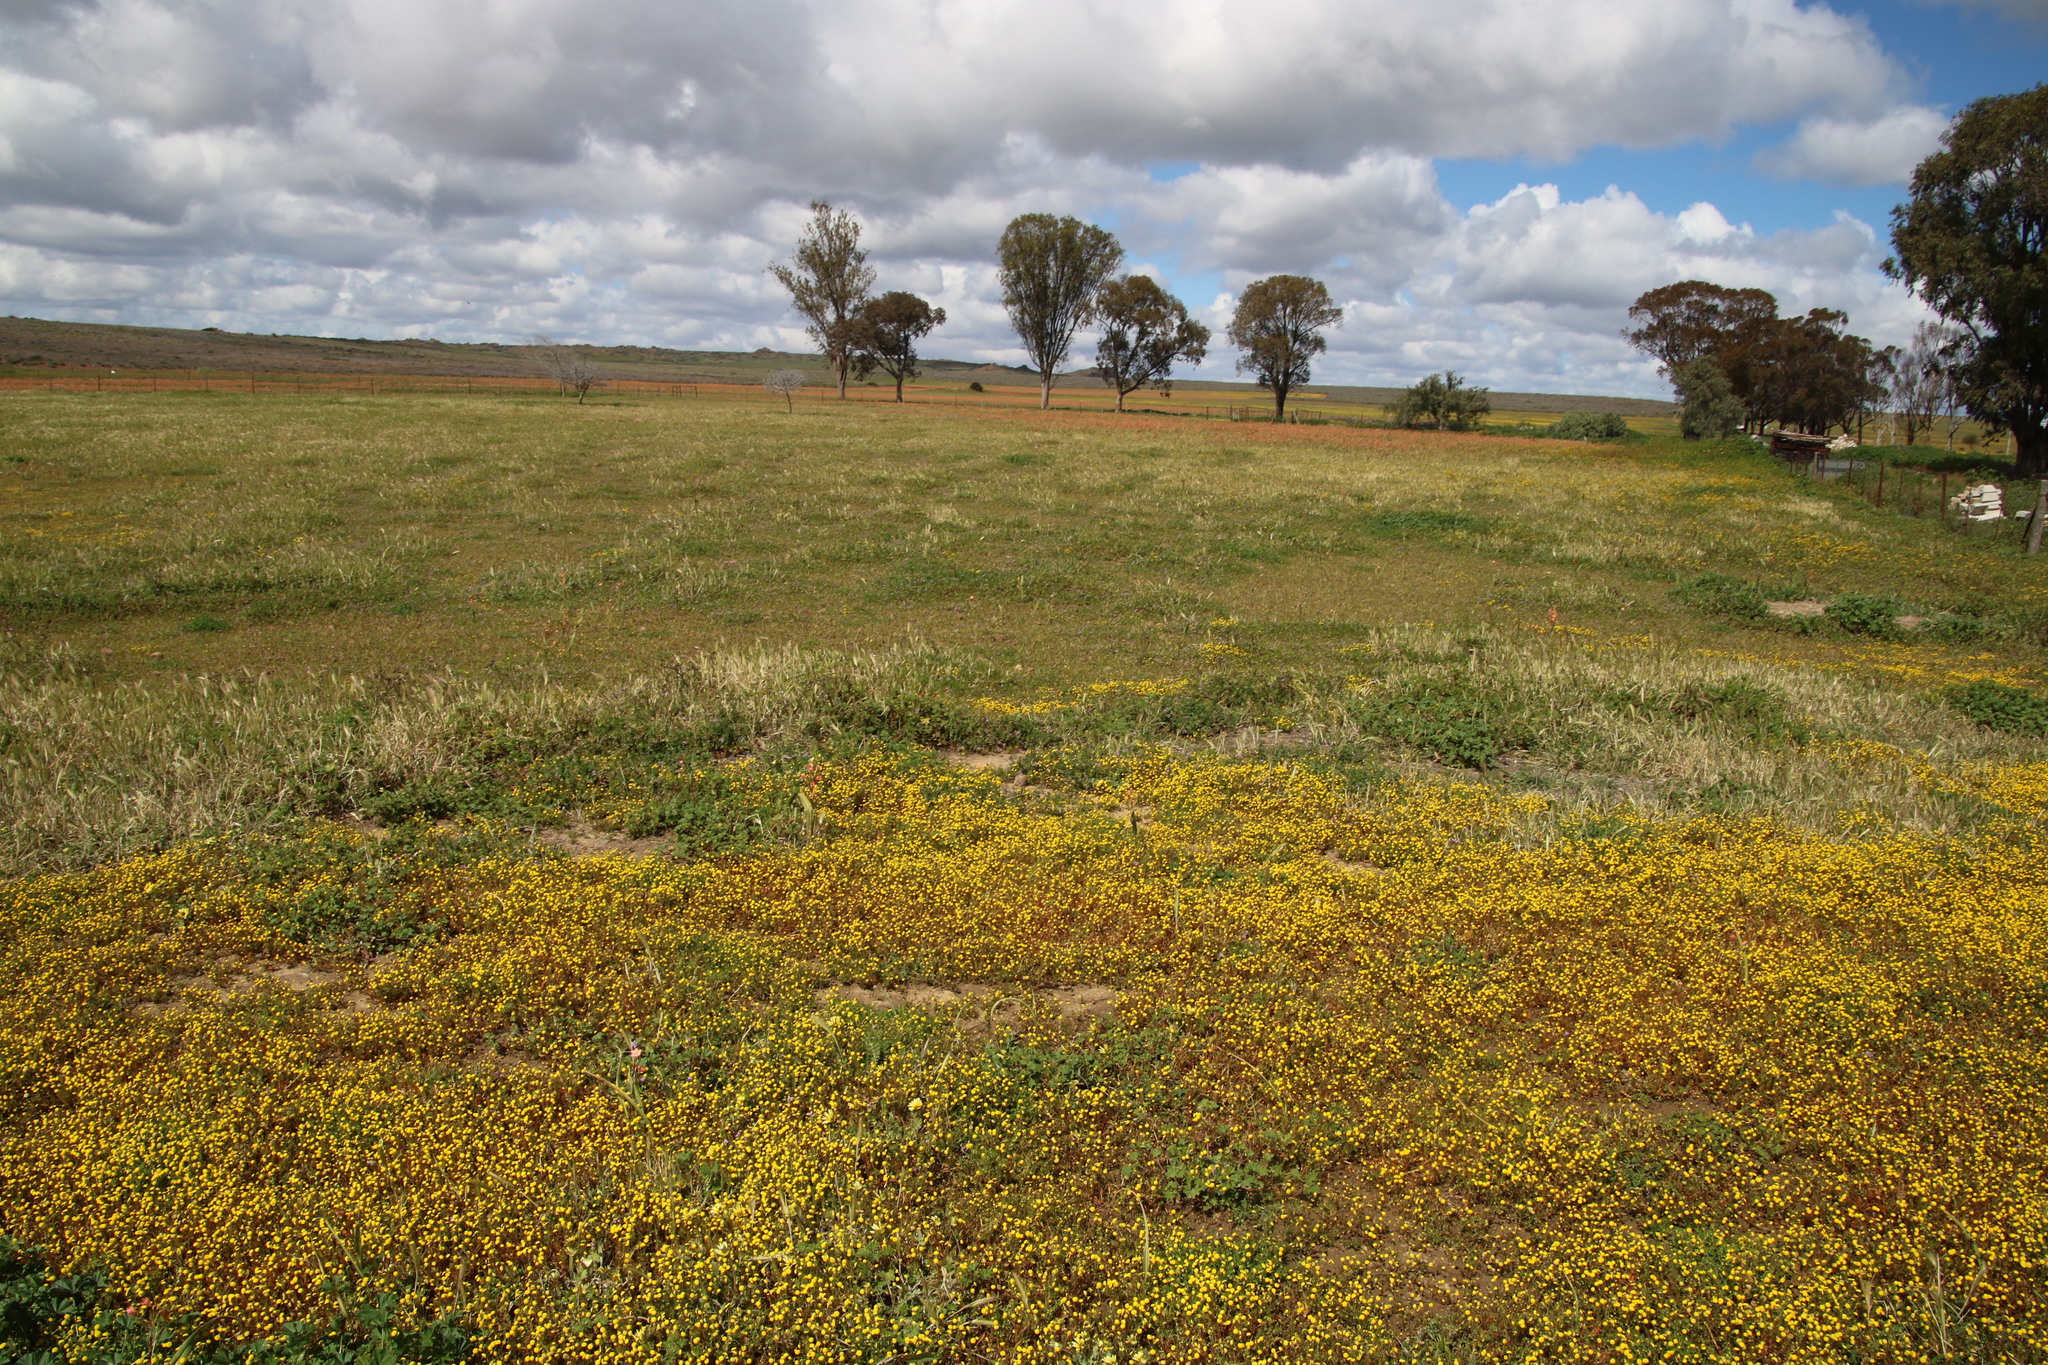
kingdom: Plantae
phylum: Tracheophyta
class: Magnoliopsida
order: Asterales
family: Asteraceae
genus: Cotula
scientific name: Cotula bipinnata
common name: Ferny buttonweed
